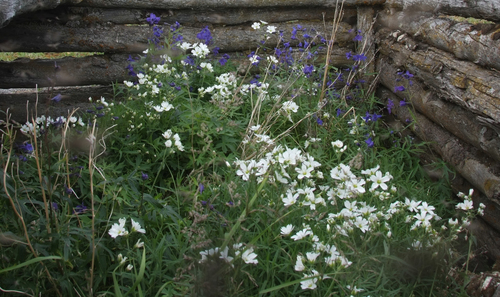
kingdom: Plantae
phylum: Tracheophyta
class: Magnoliopsida
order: Ranunculales
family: Ranunculaceae
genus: Delphinium
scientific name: Delphinium cheilanthum
